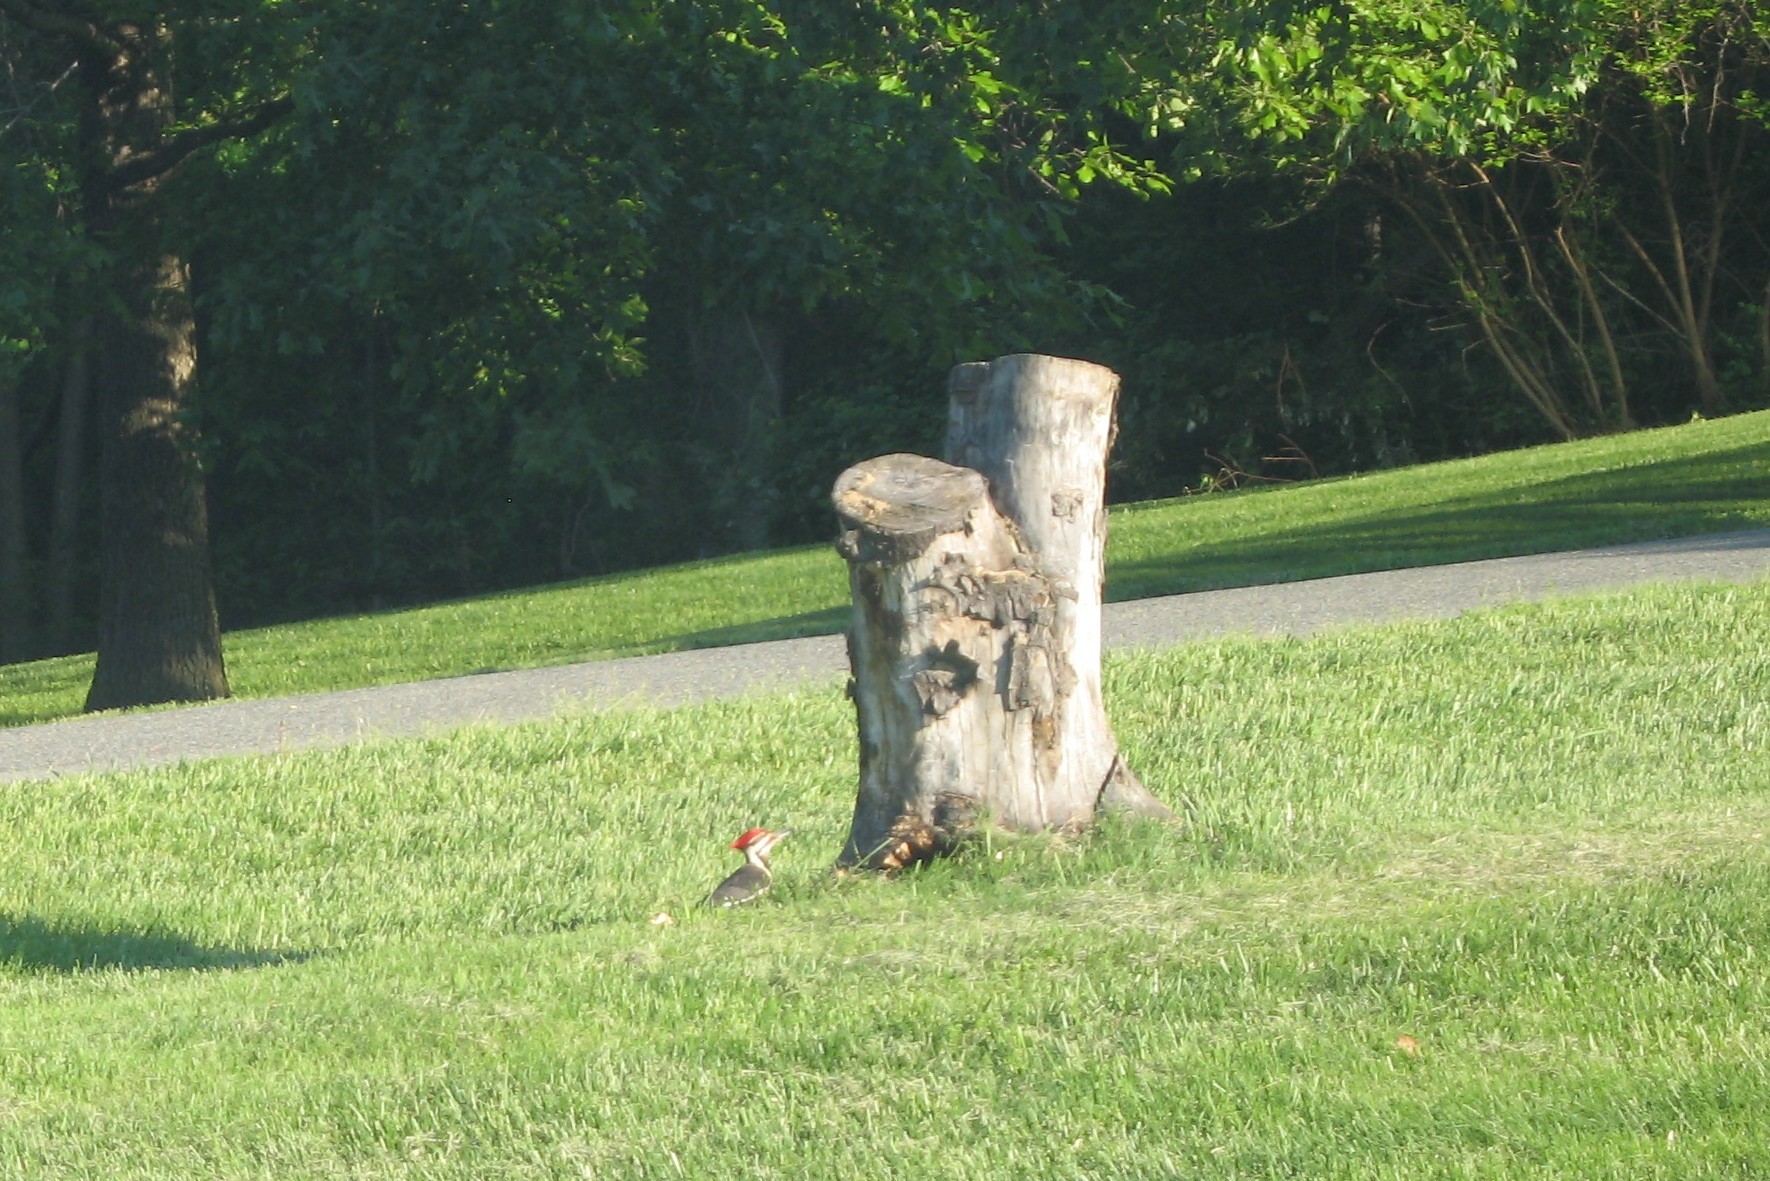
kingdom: Animalia
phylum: Chordata
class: Aves
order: Piciformes
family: Picidae
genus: Dryocopus
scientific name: Dryocopus pileatus
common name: Pileated woodpecker
